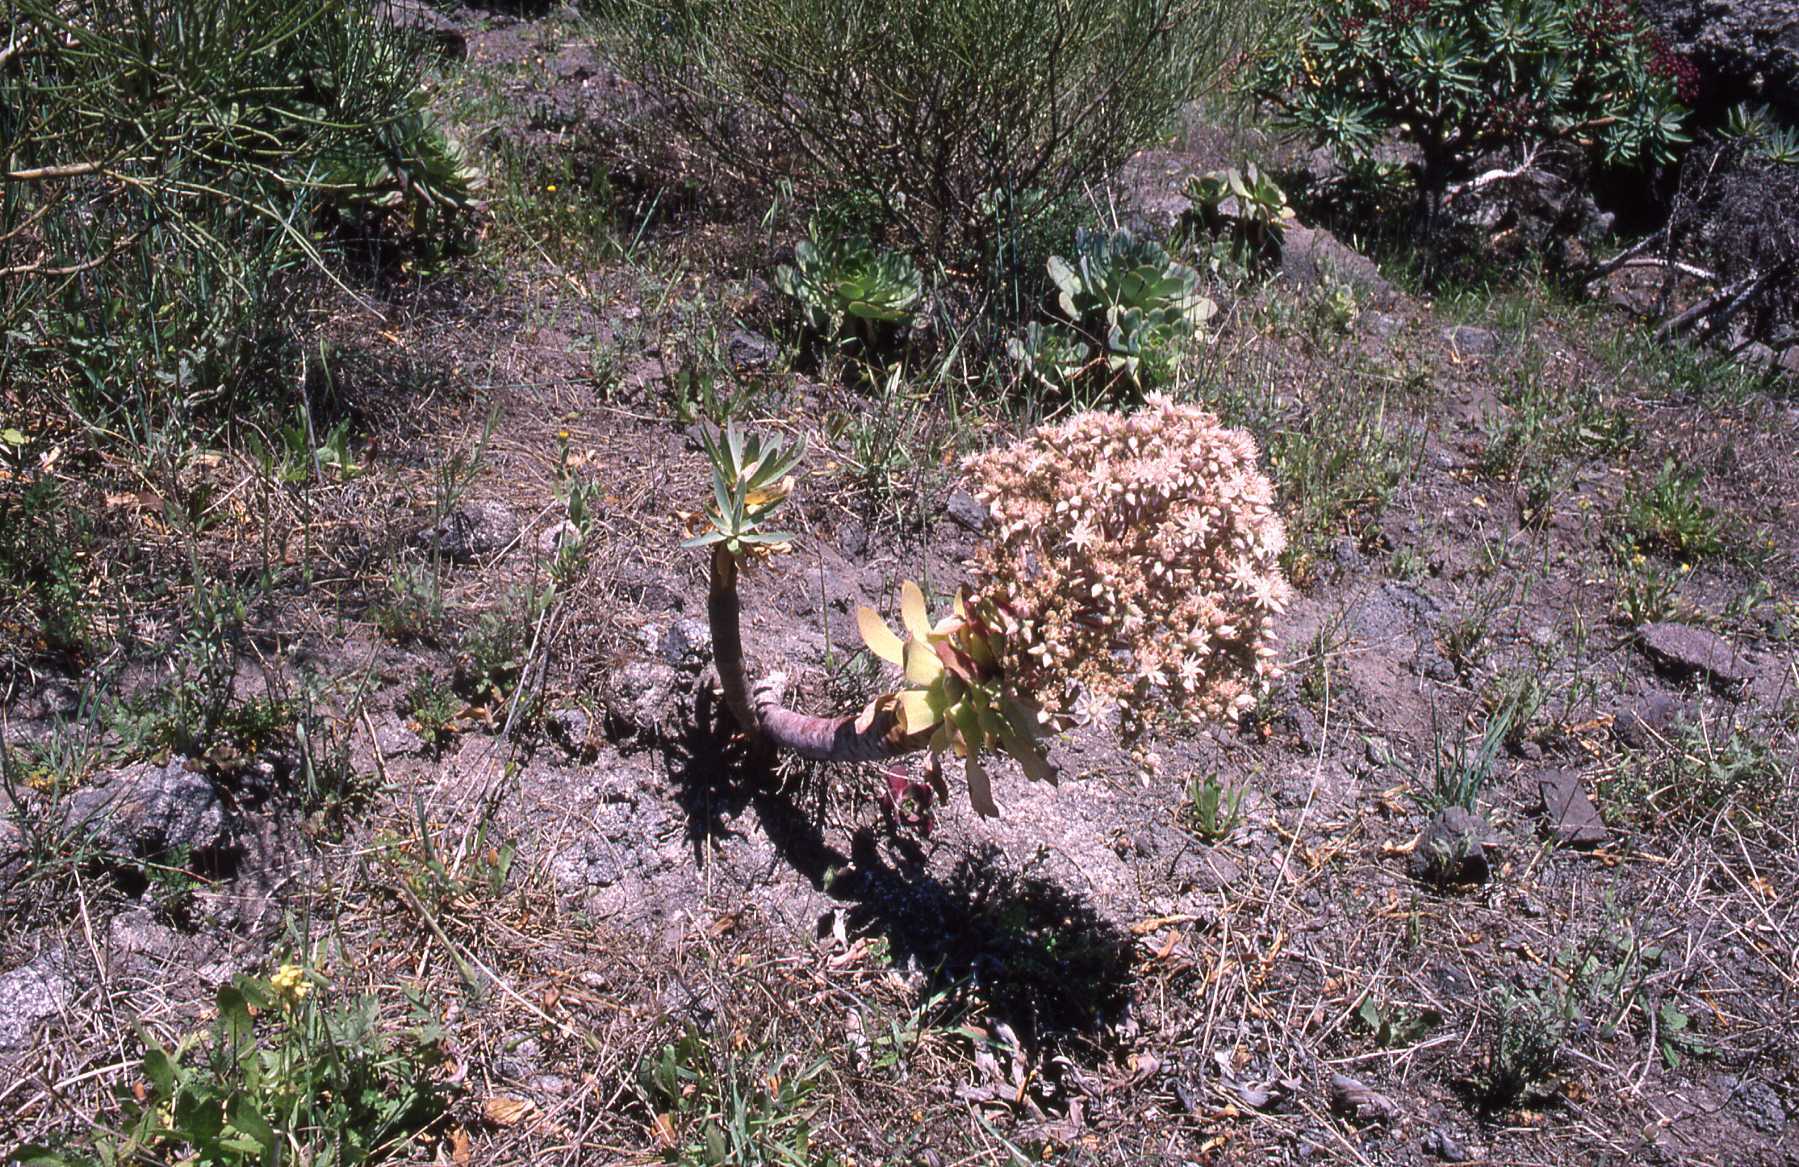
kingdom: Plantae
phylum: Tracheophyta
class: Magnoliopsida
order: Saxifragales
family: Crassulaceae
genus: Aeonium
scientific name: Aeonium urbicum
